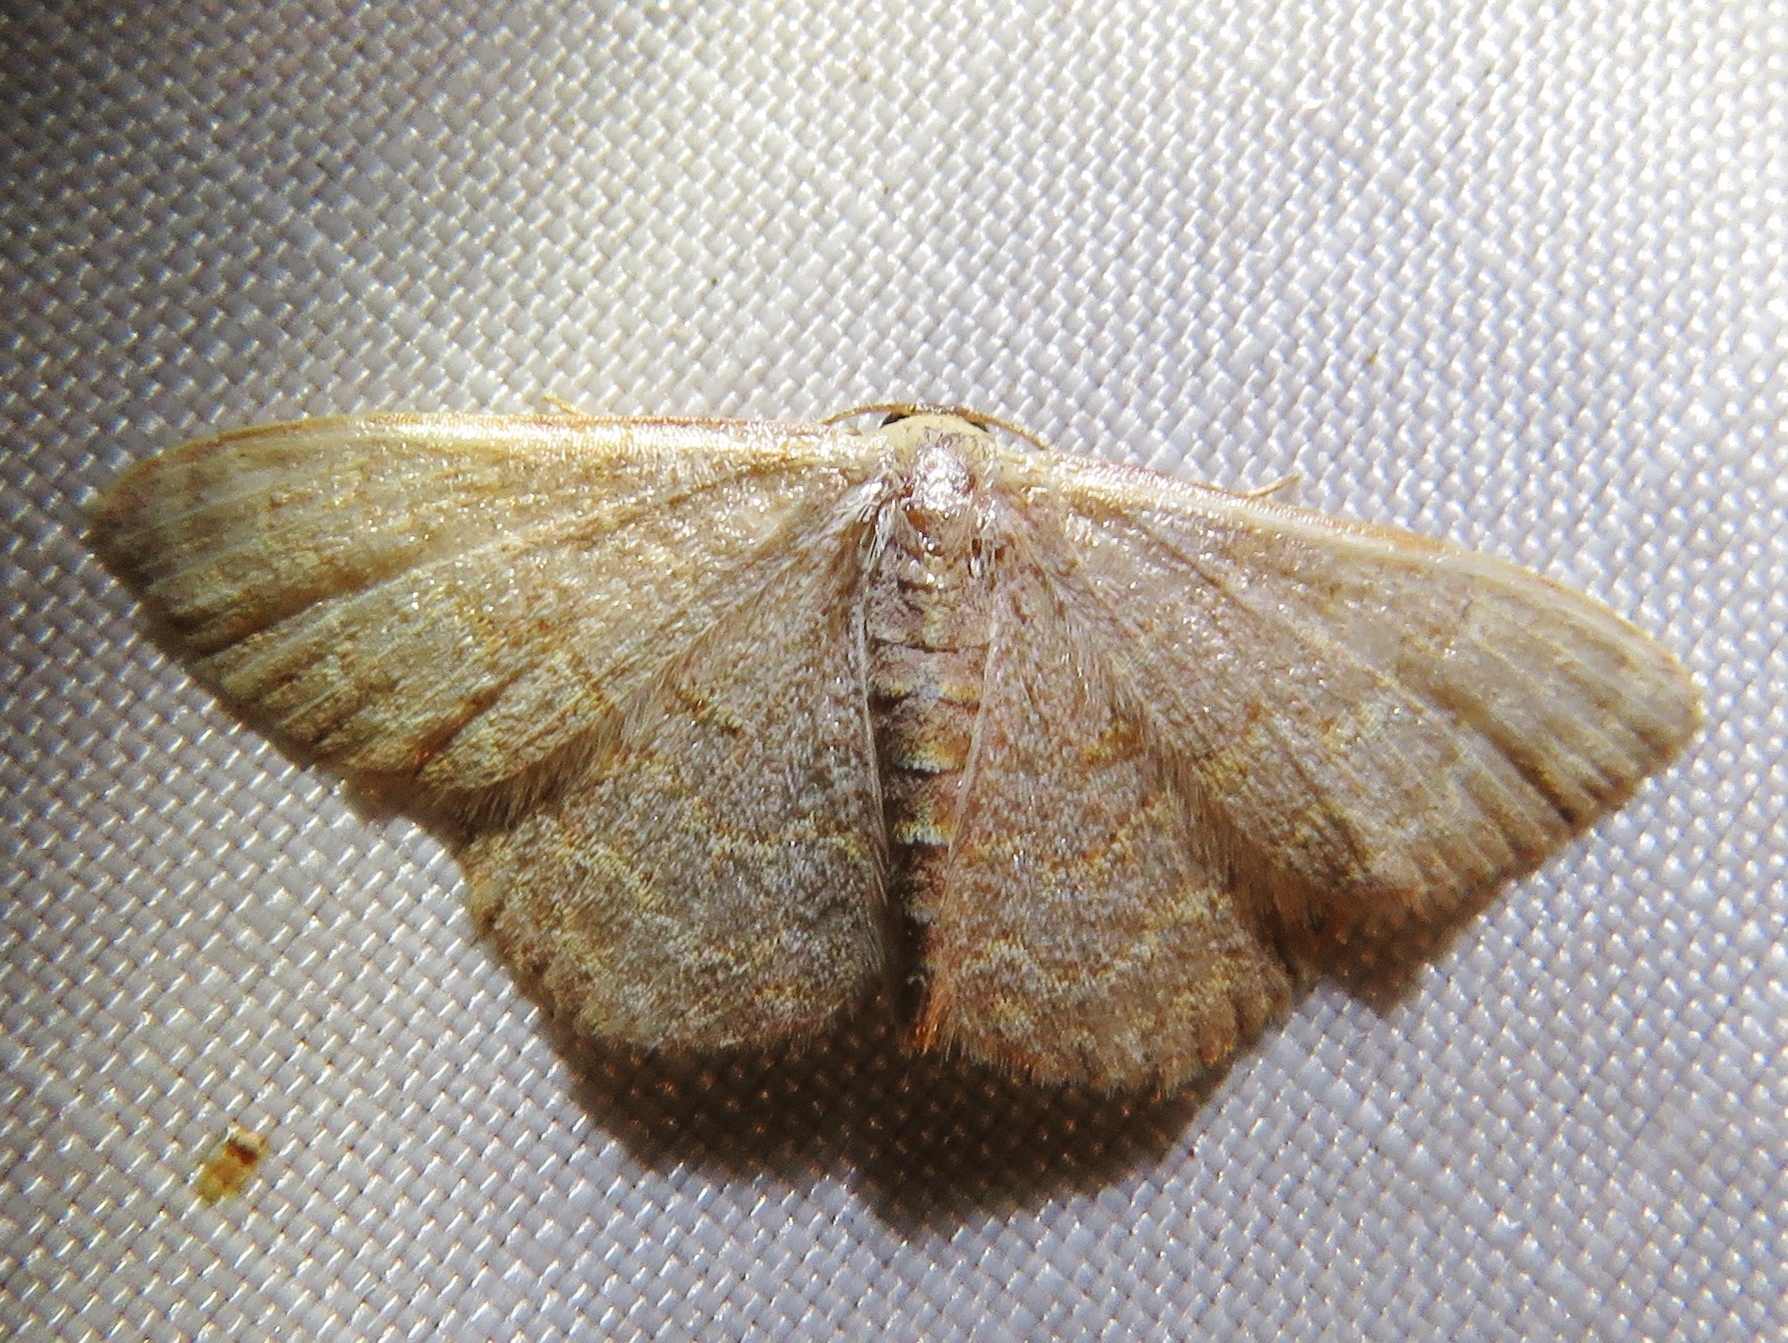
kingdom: Animalia
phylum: Arthropoda
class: Insecta
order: Lepidoptera
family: Geometridae
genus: Leptostales
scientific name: Leptostales pannaria
